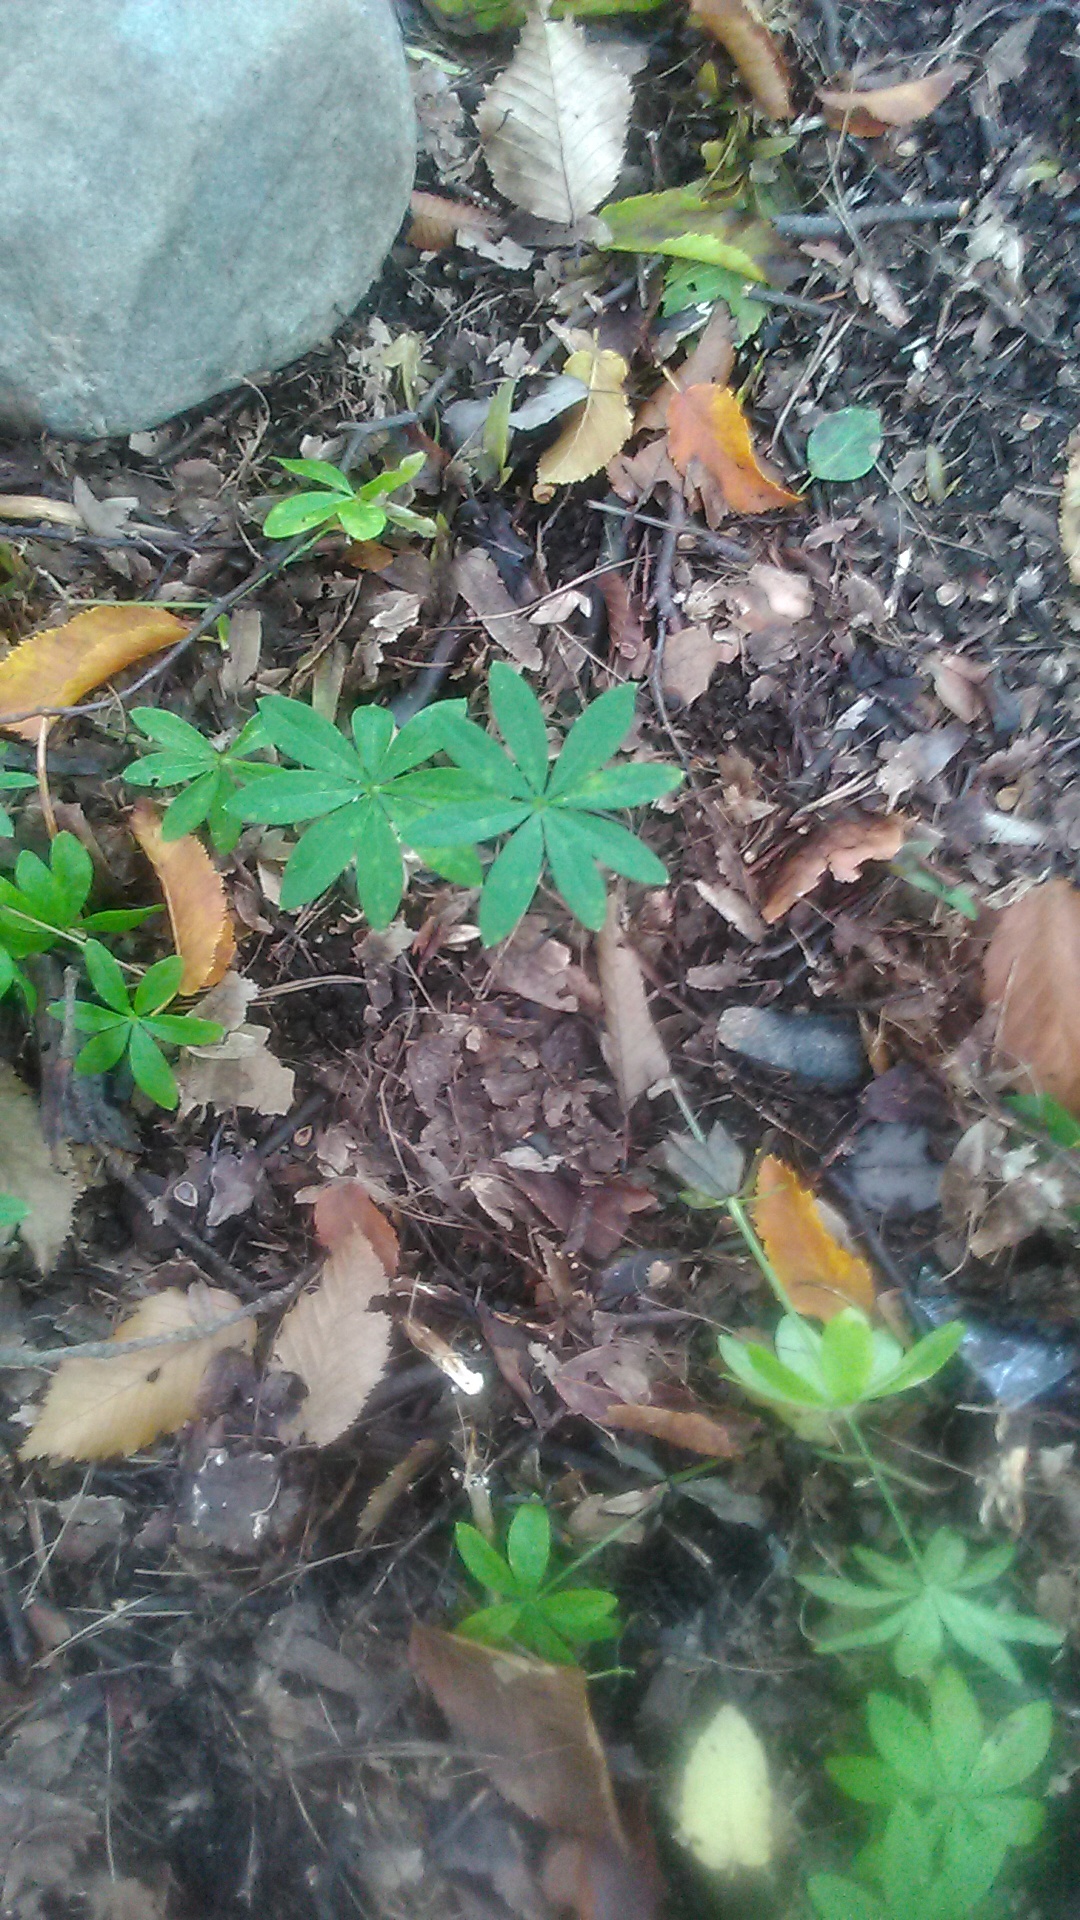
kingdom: Plantae
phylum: Tracheophyta
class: Magnoliopsida
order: Gentianales
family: Rubiaceae
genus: Galium
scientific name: Galium odoratum
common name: Sweet woodruff
